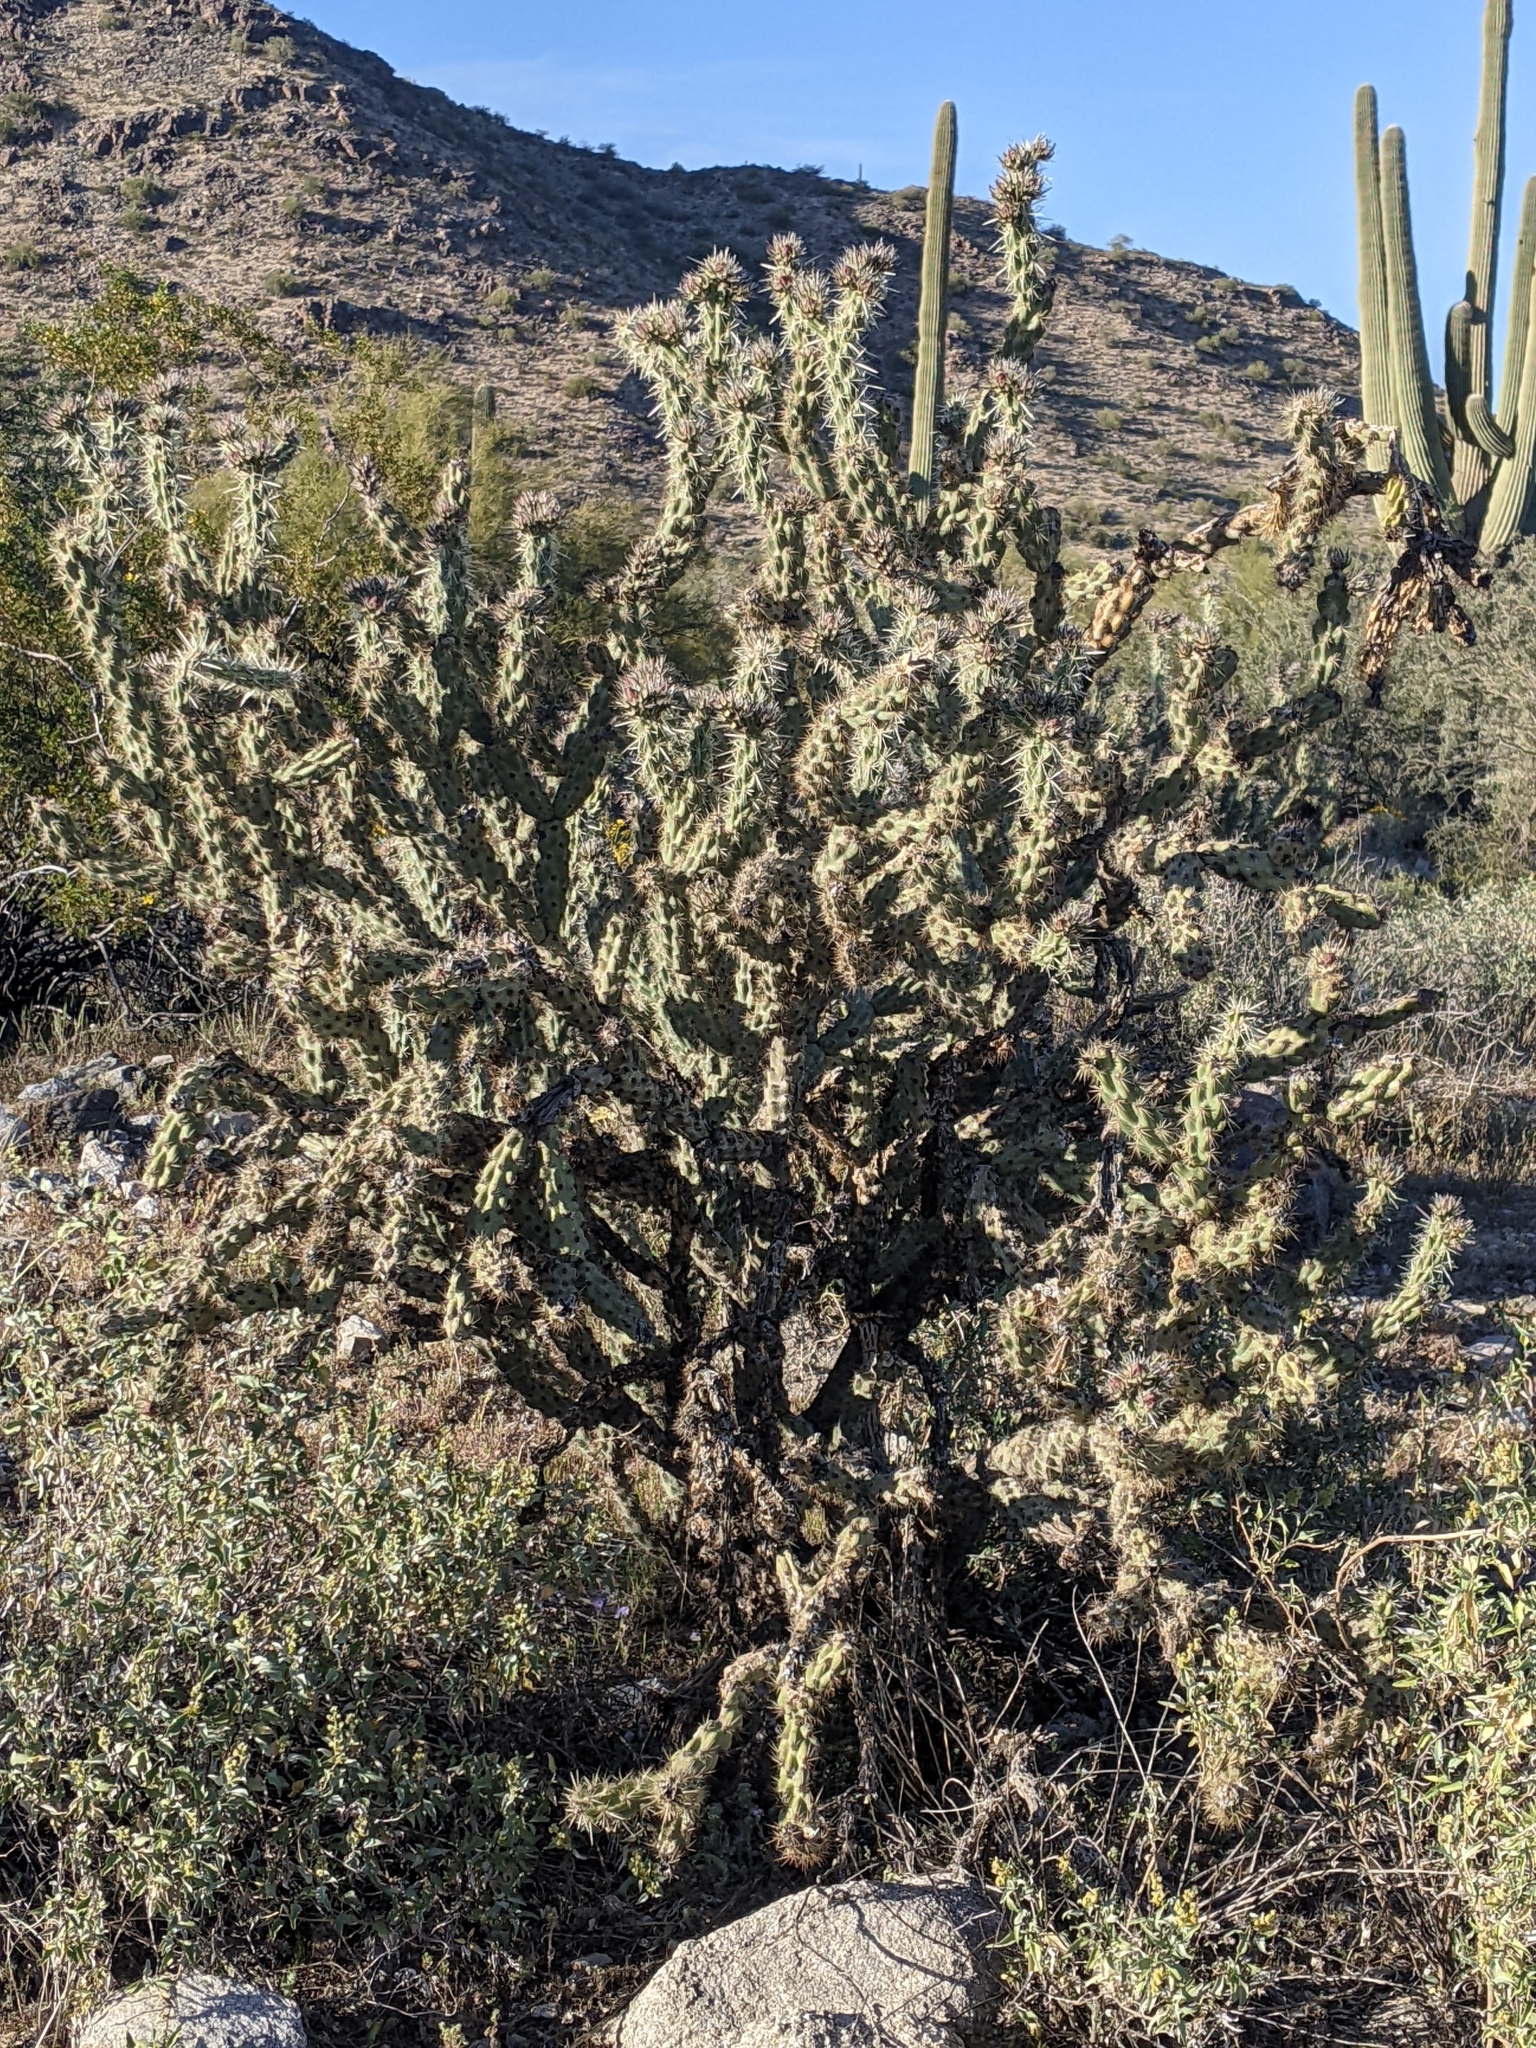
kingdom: Plantae
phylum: Tracheophyta
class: Magnoliopsida
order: Caryophyllales
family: Cactaceae
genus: Cylindropuntia
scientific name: Cylindropuntia acanthocarpa
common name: Buckhorn cholla
